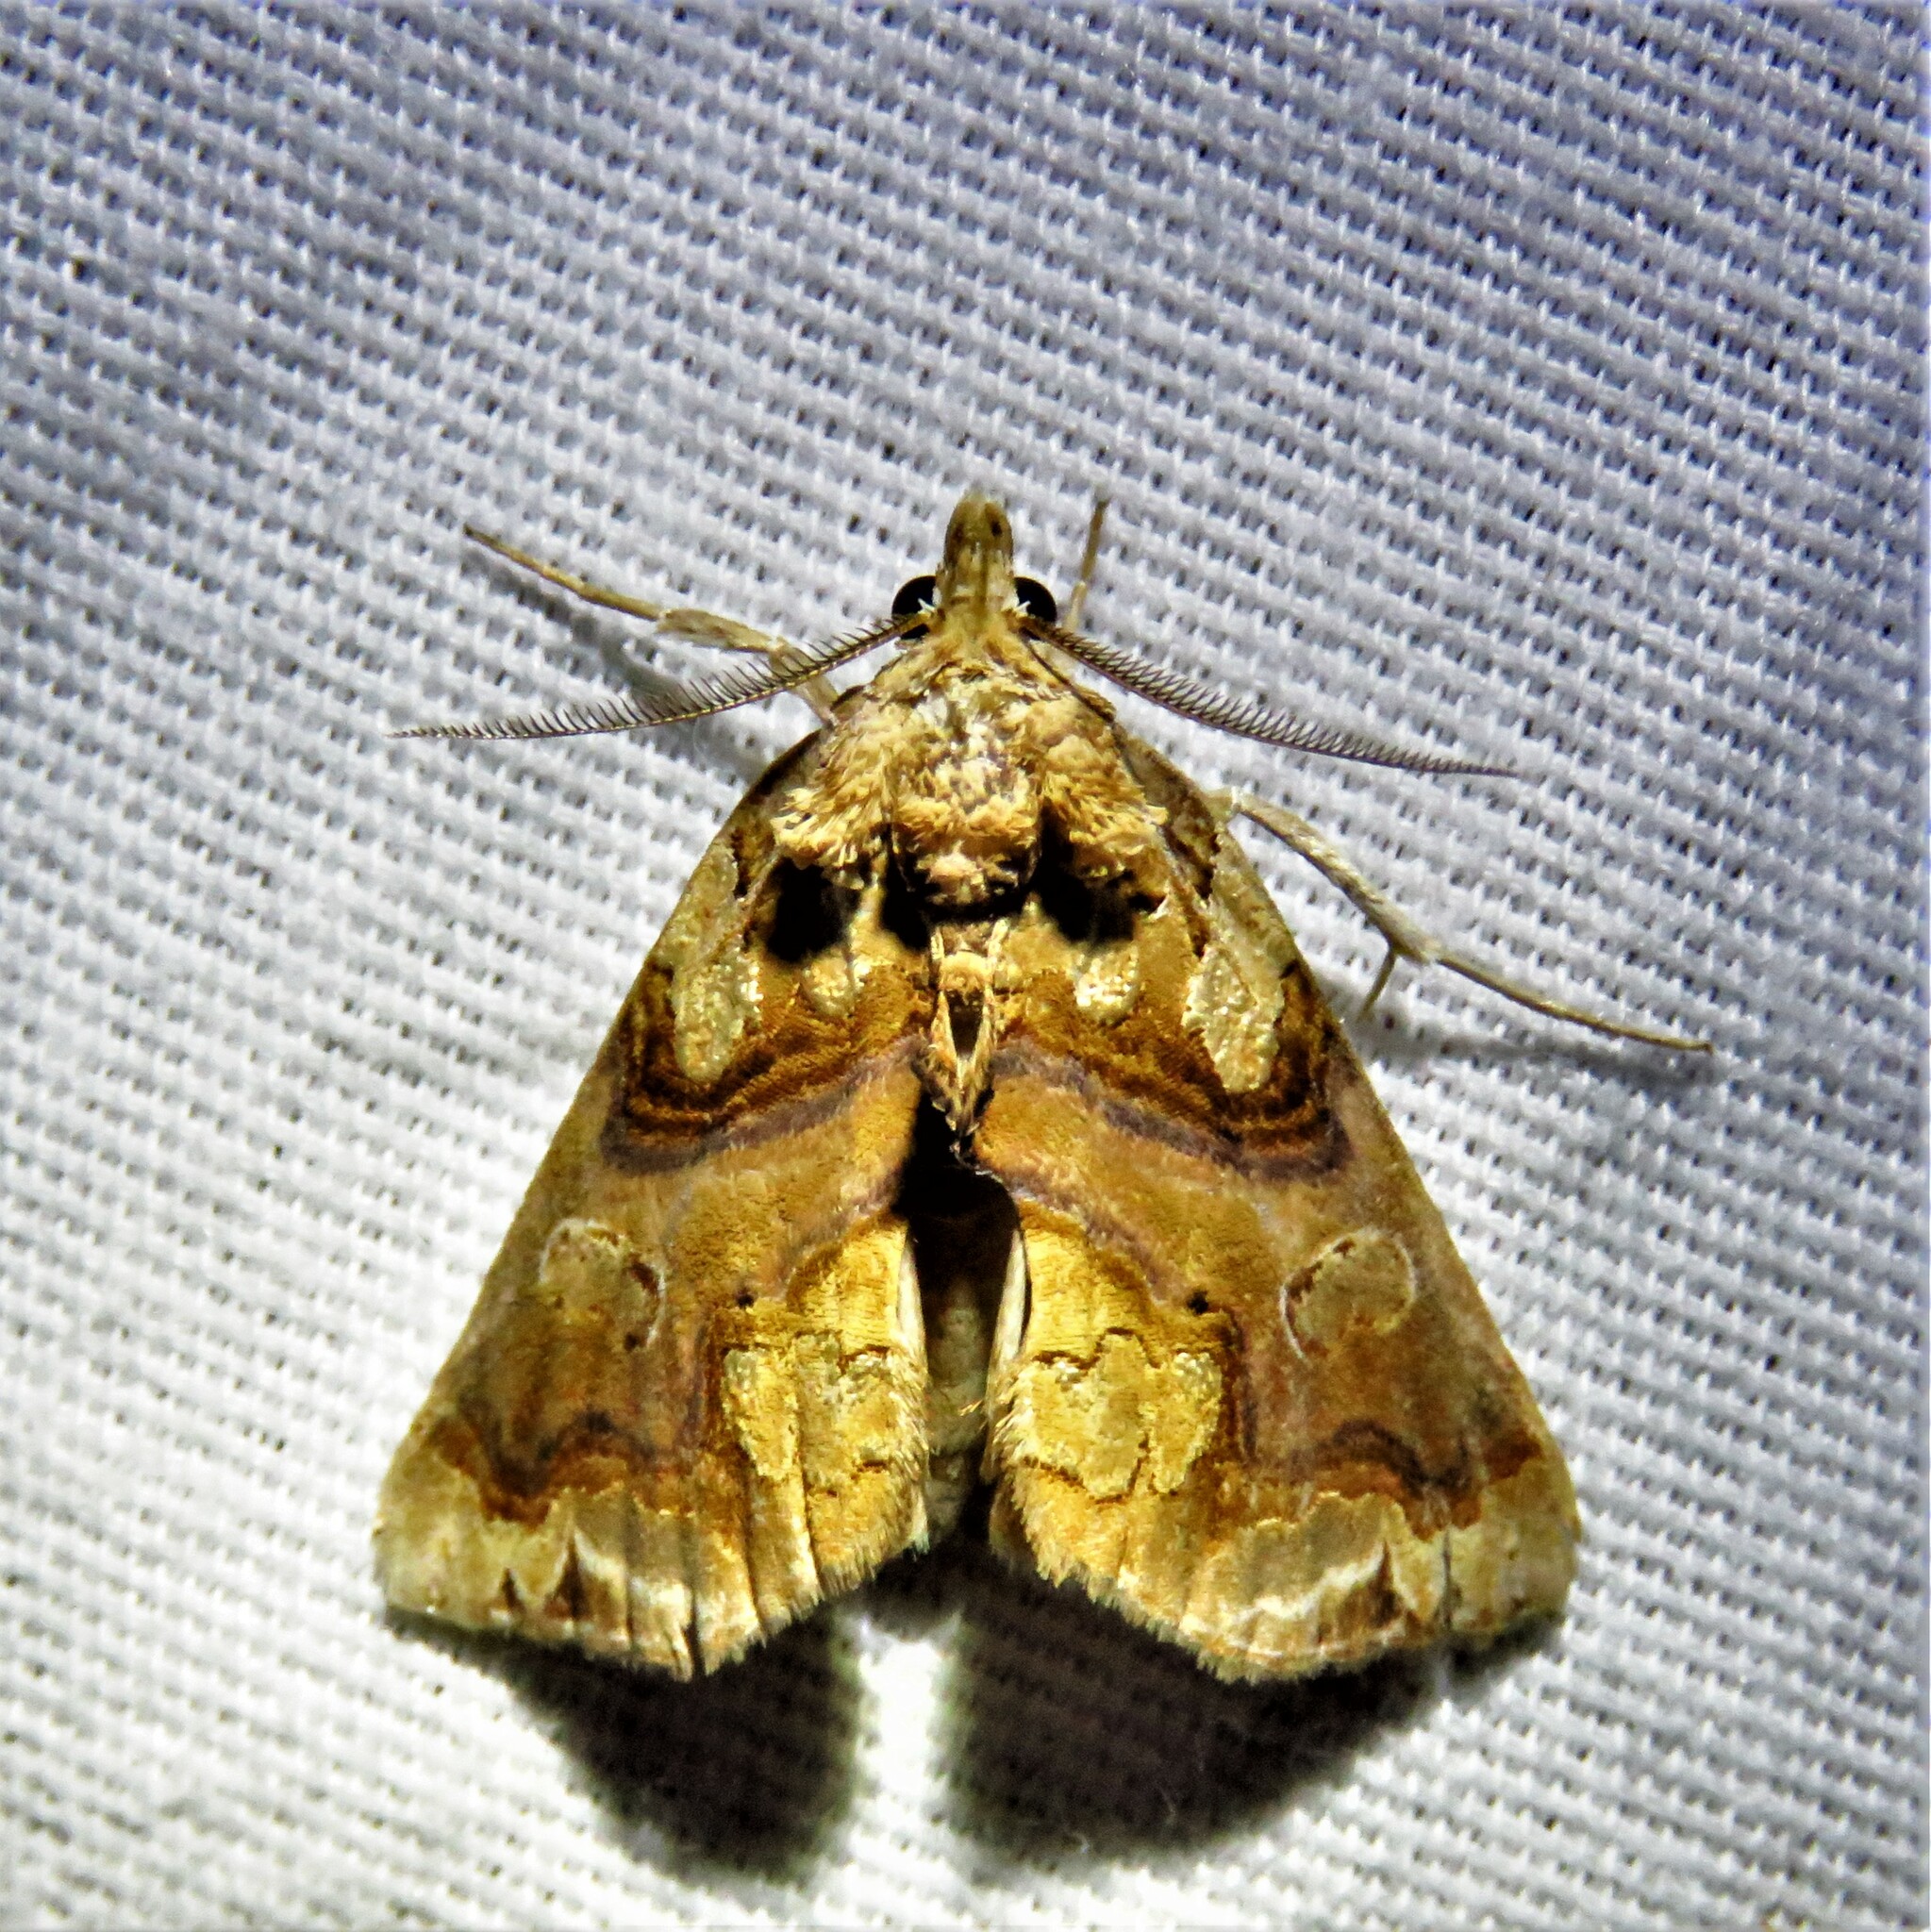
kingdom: Animalia
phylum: Arthropoda
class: Insecta
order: Lepidoptera
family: Erebidae
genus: Plusiodonta
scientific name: Plusiodonta compressipalpis
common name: Moonseed moth
